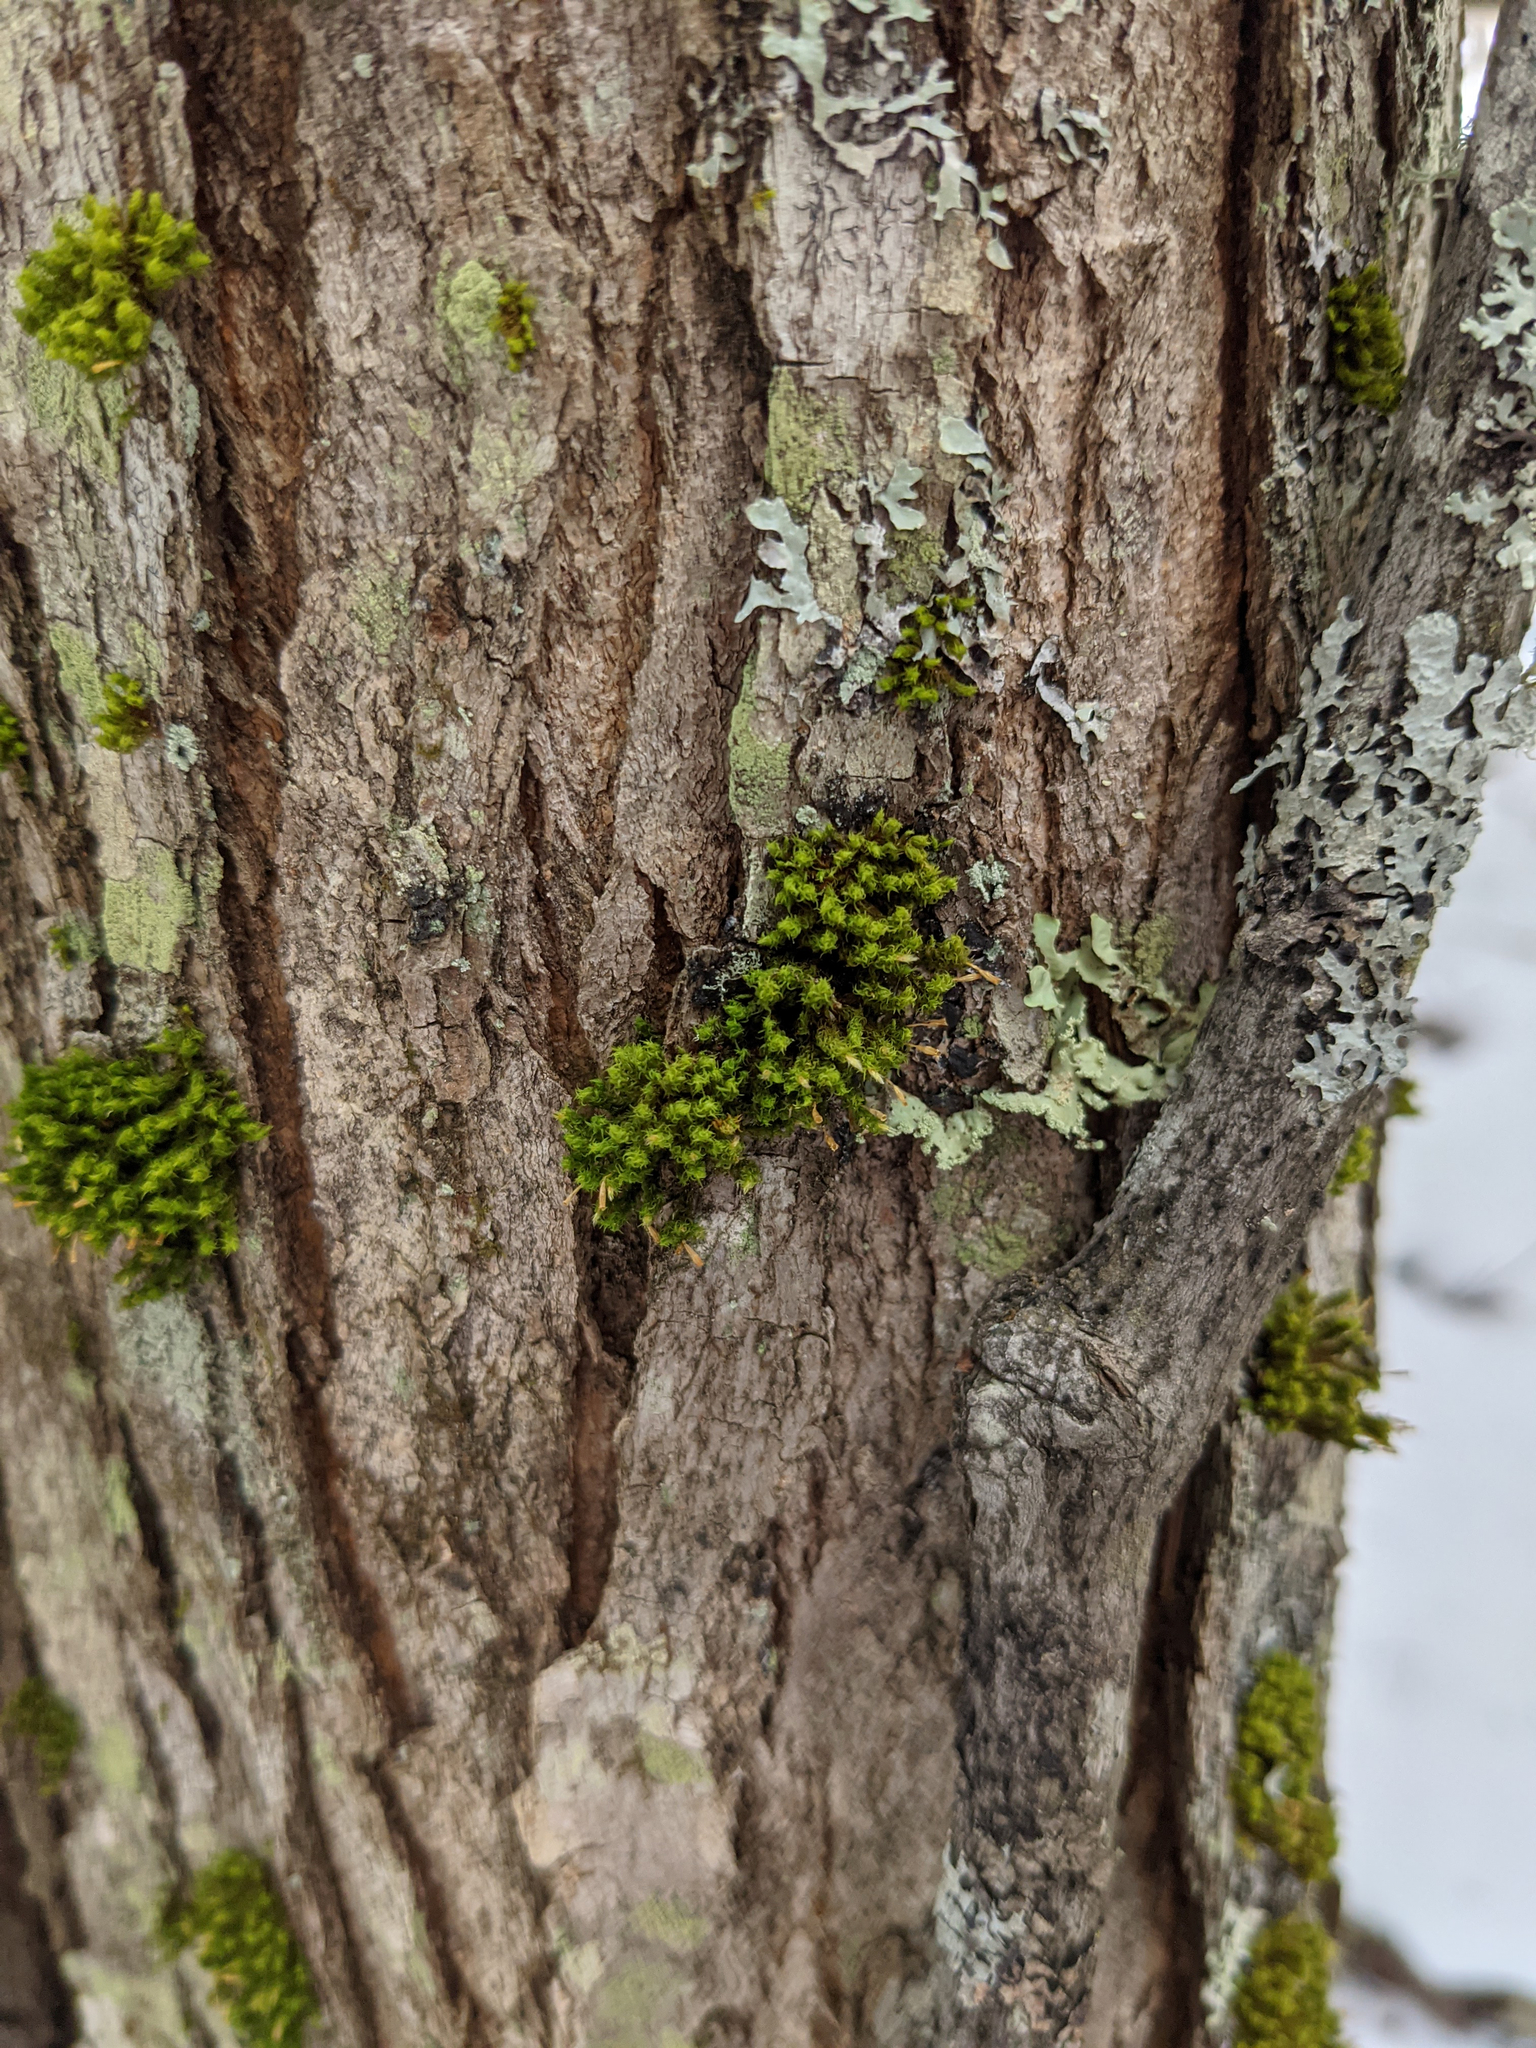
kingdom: Plantae
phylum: Bryophyta
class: Bryopsida
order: Orthotrichales
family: Orthotrichaceae
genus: Ulota
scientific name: Ulota crispa
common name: Crisped pincushion moss
